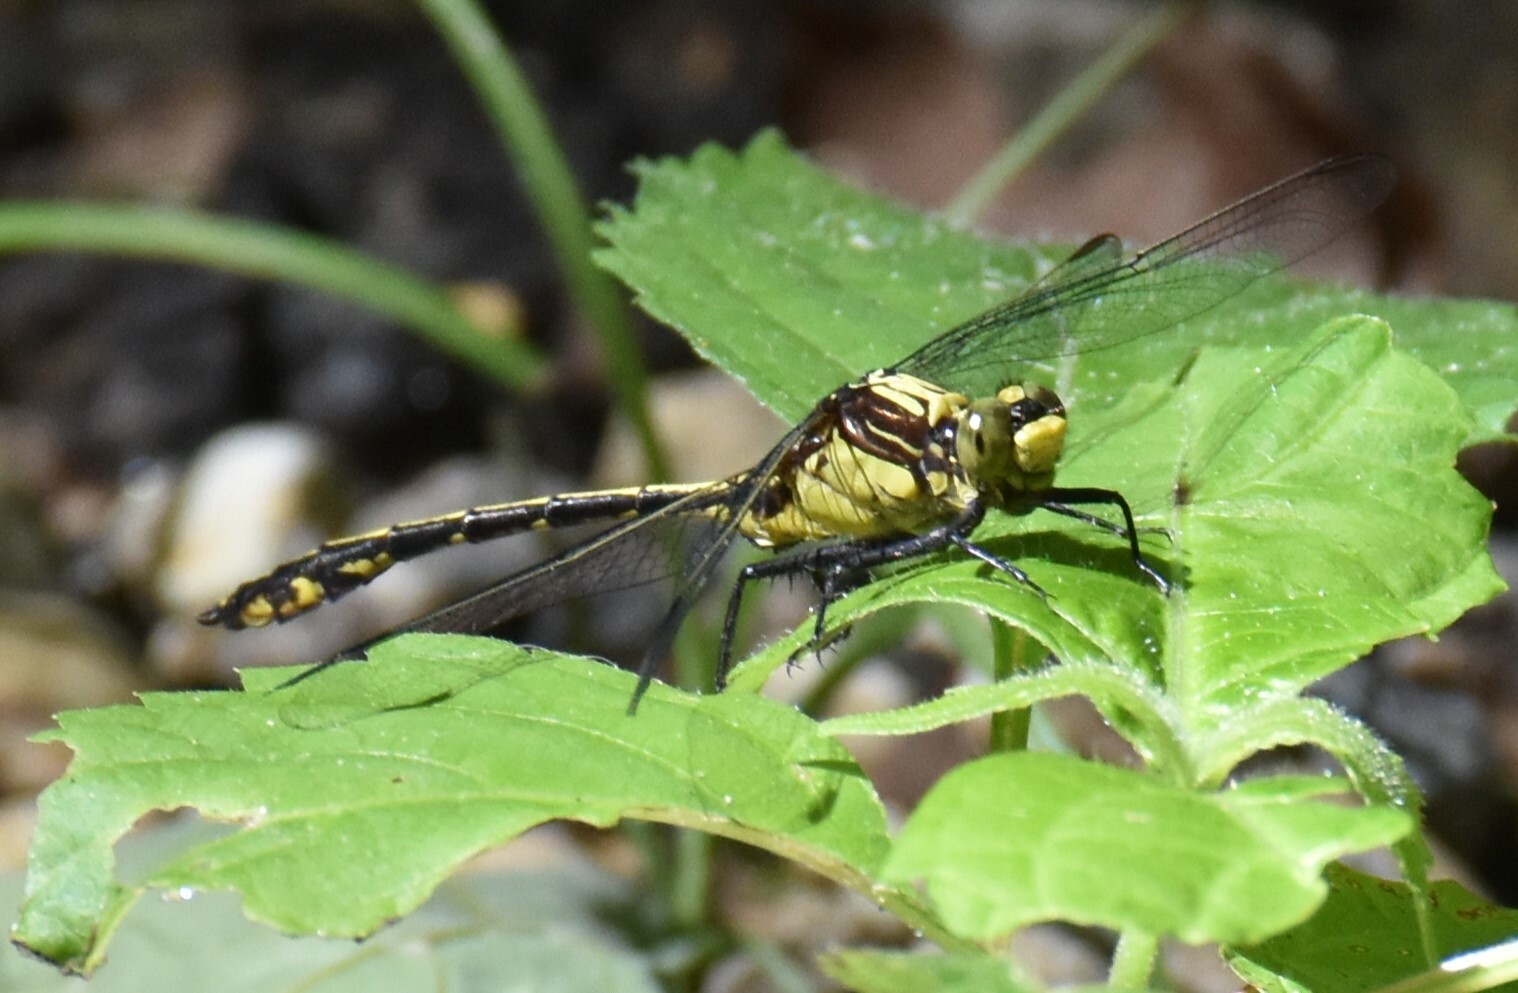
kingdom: Animalia
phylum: Arthropoda
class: Insecta
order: Odonata
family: Gomphidae
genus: Dromogomphus
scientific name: Dromogomphus spinosus
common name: Black-shouldered spinyleg
